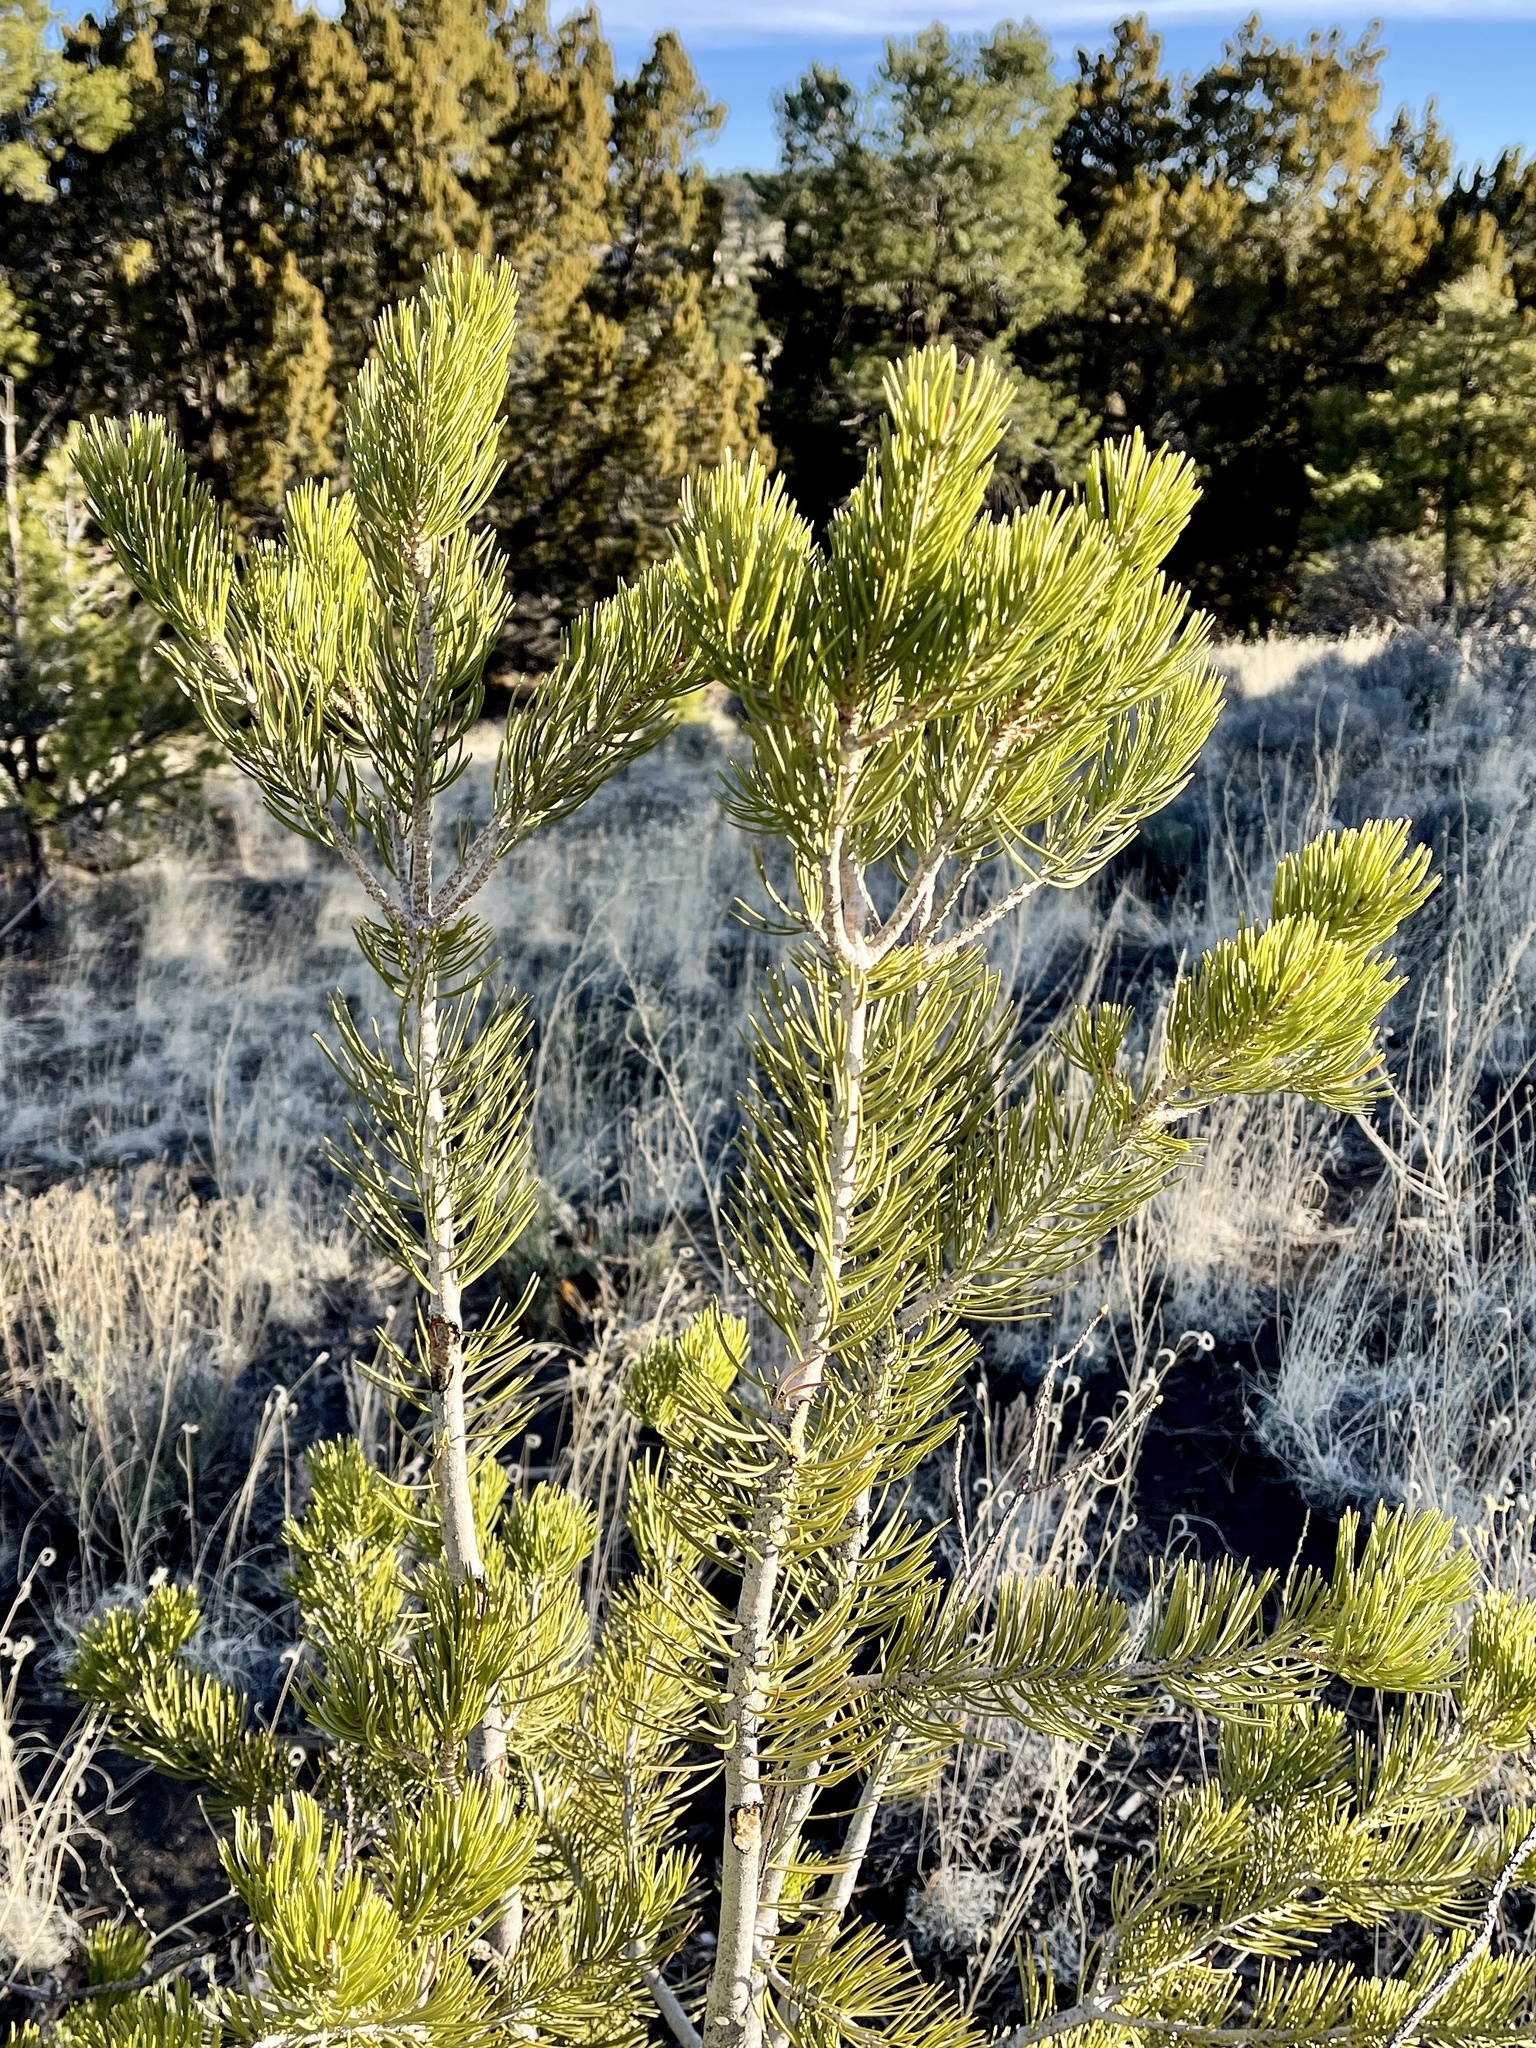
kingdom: Plantae
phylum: Tracheophyta
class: Pinopsida
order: Pinales
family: Pinaceae
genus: Pinus
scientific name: Pinus edulis
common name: Colorado pinyon
